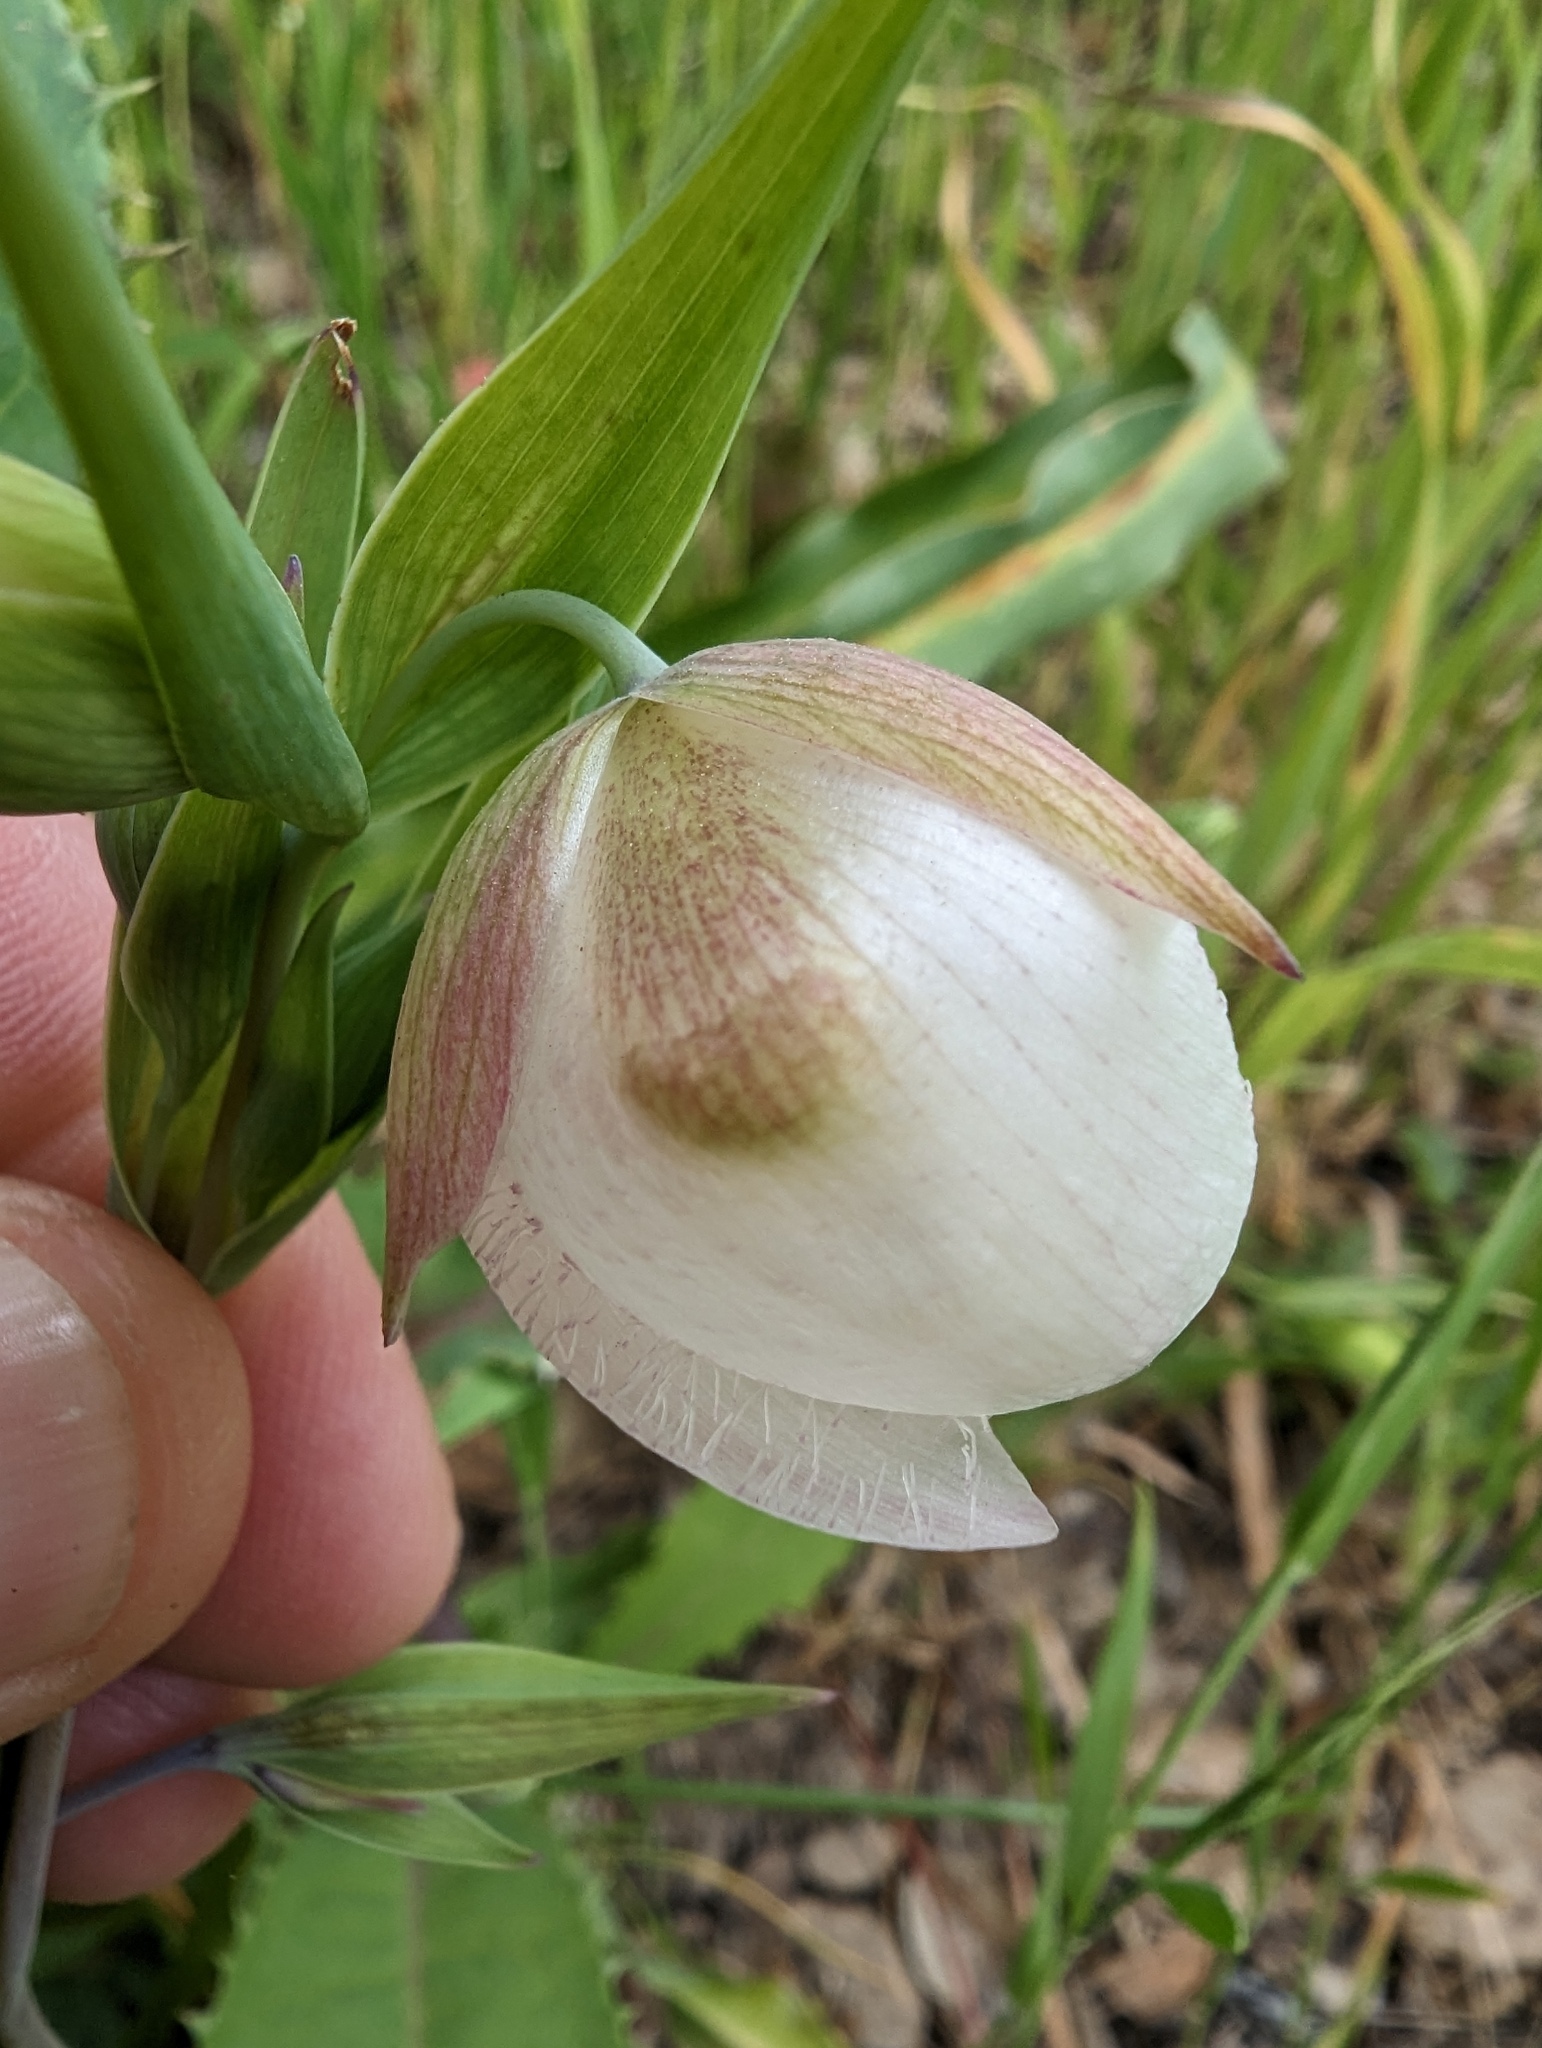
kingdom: Plantae
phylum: Tracheophyta
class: Liliopsida
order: Liliales
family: Liliaceae
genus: Calochortus
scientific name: Calochortus albus
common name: Fairy-lantern
